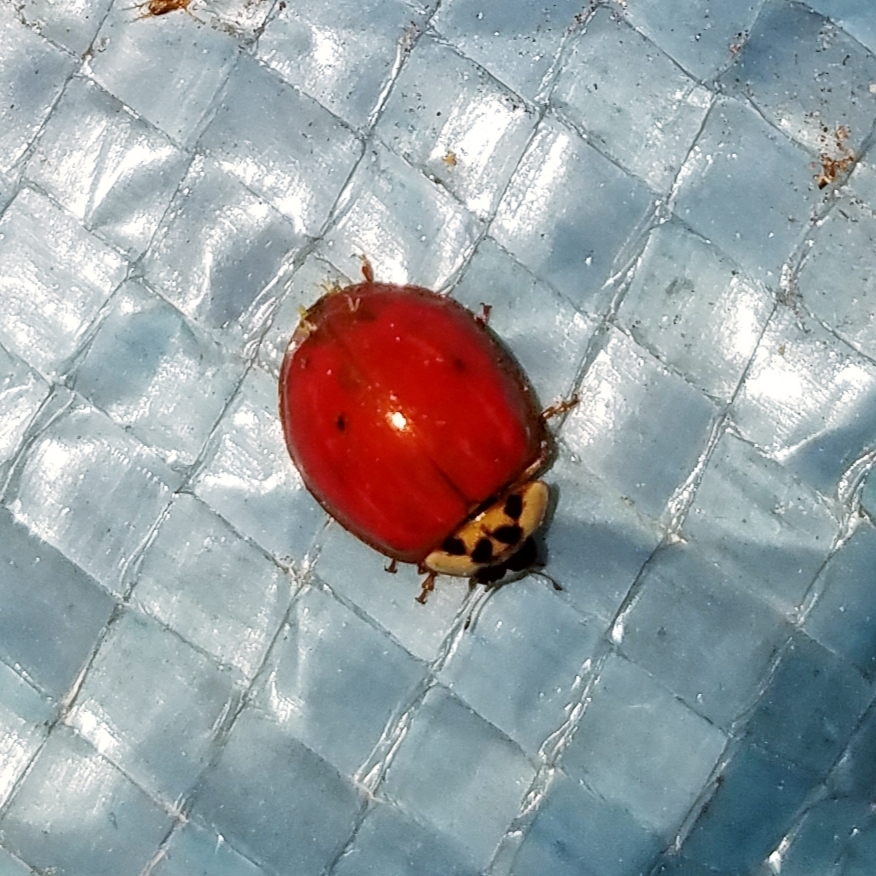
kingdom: Animalia
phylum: Arthropoda
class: Insecta
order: Coleoptera
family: Coccinellidae
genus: Harmonia
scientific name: Harmonia axyridis
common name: Harlequin ladybird
